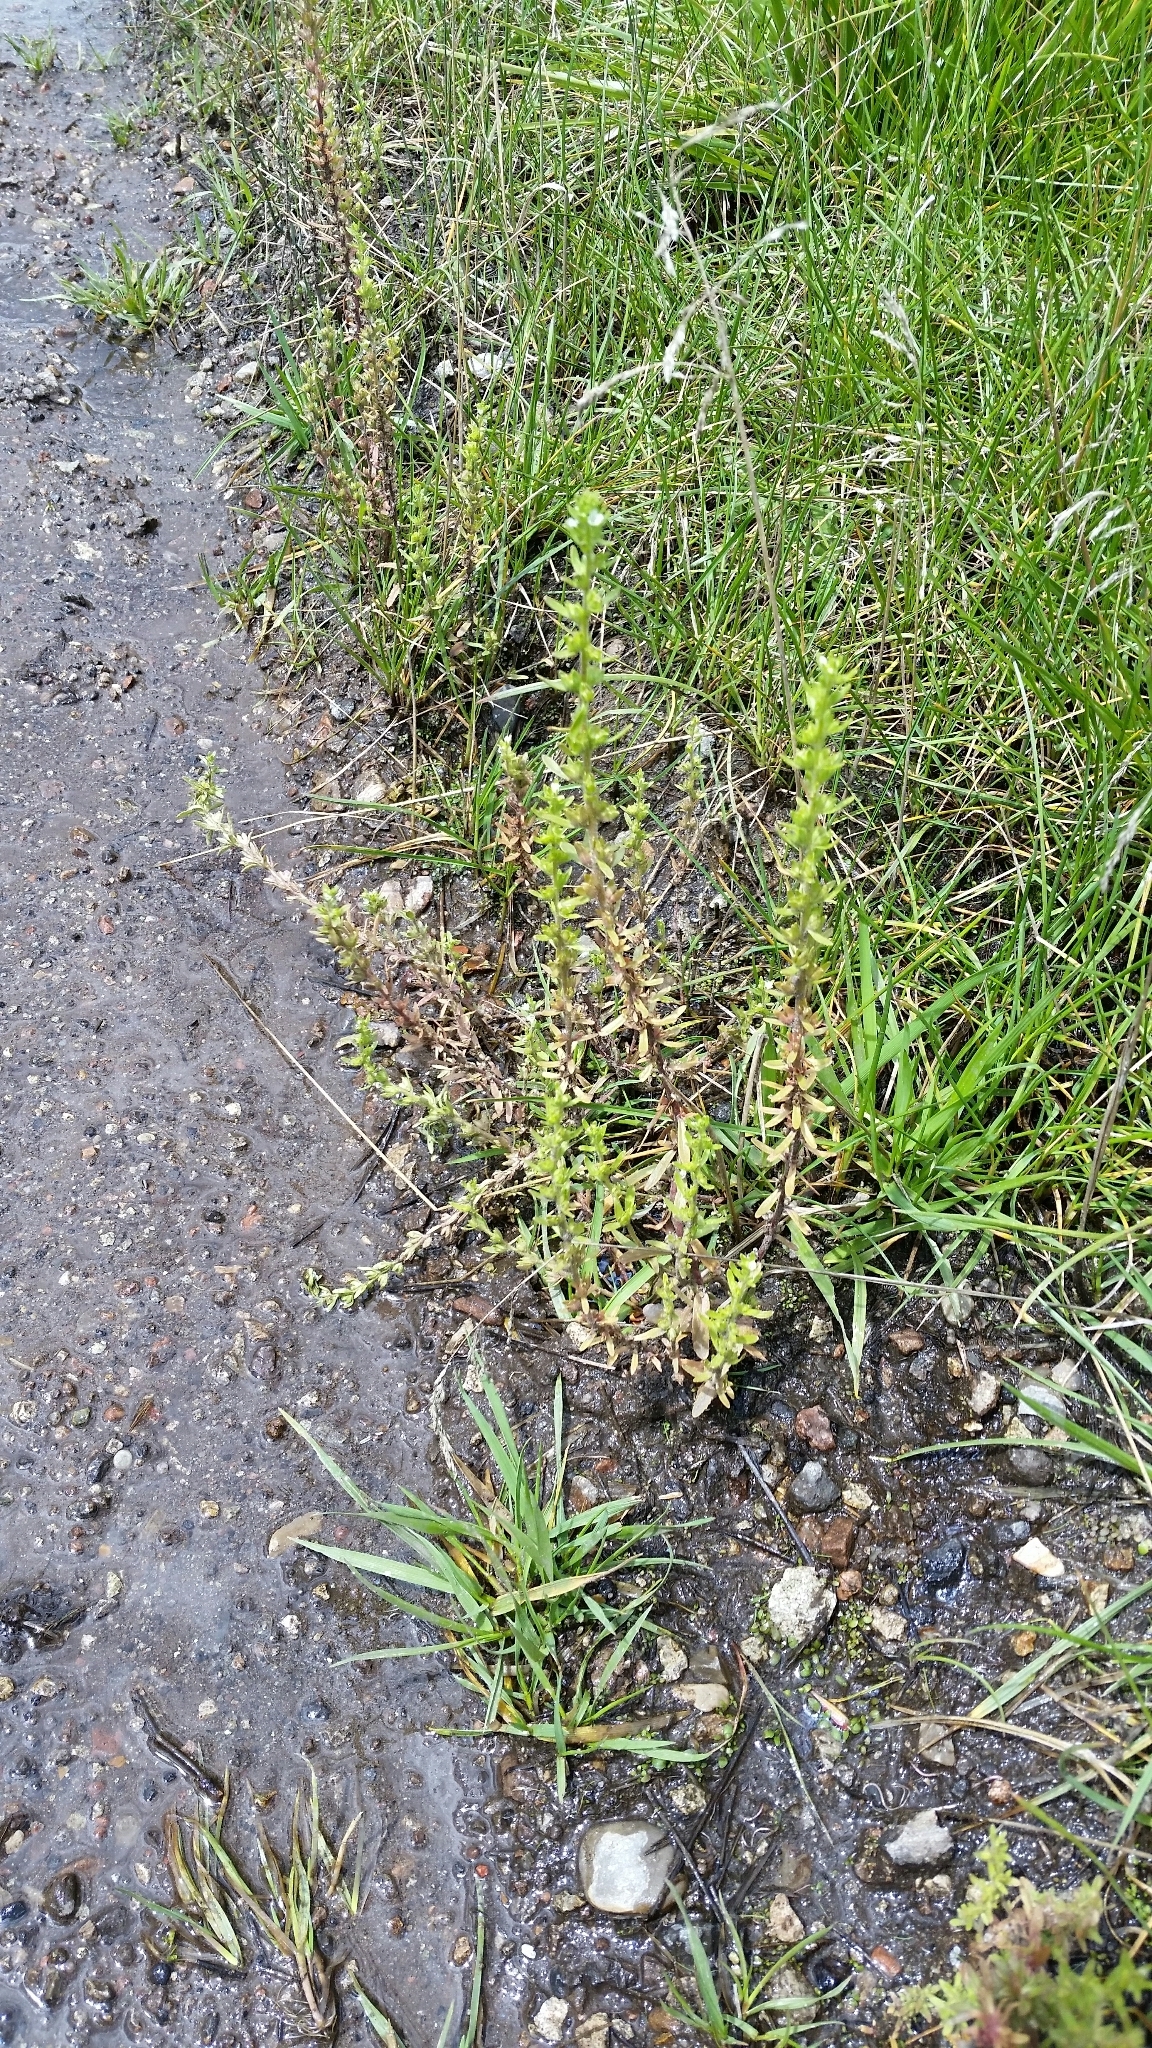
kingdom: Plantae
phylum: Tracheophyta
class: Magnoliopsida
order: Lamiales
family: Plantaginaceae
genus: Veronica
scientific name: Veronica peregrina
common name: Neckweed
